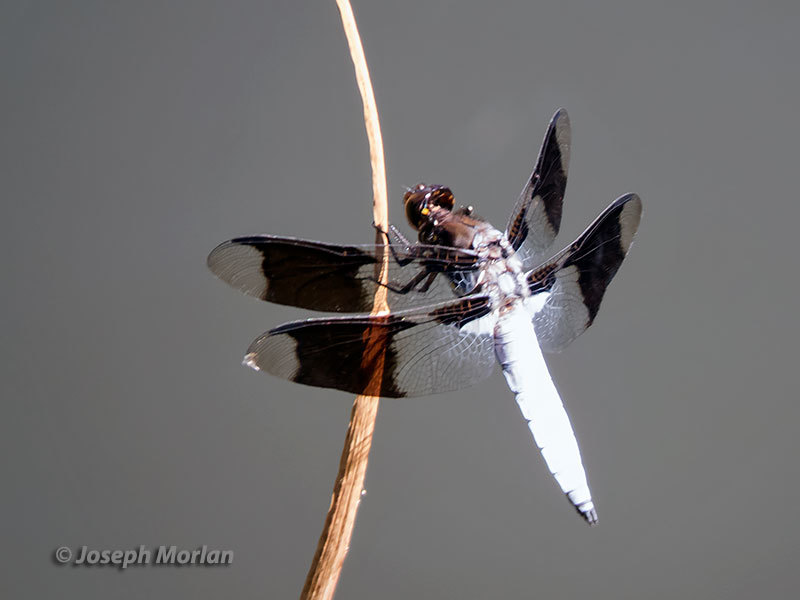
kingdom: Animalia
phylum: Arthropoda
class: Insecta
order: Odonata
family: Libellulidae
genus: Plathemis
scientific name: Plathemis lydia
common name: Common whitetail
